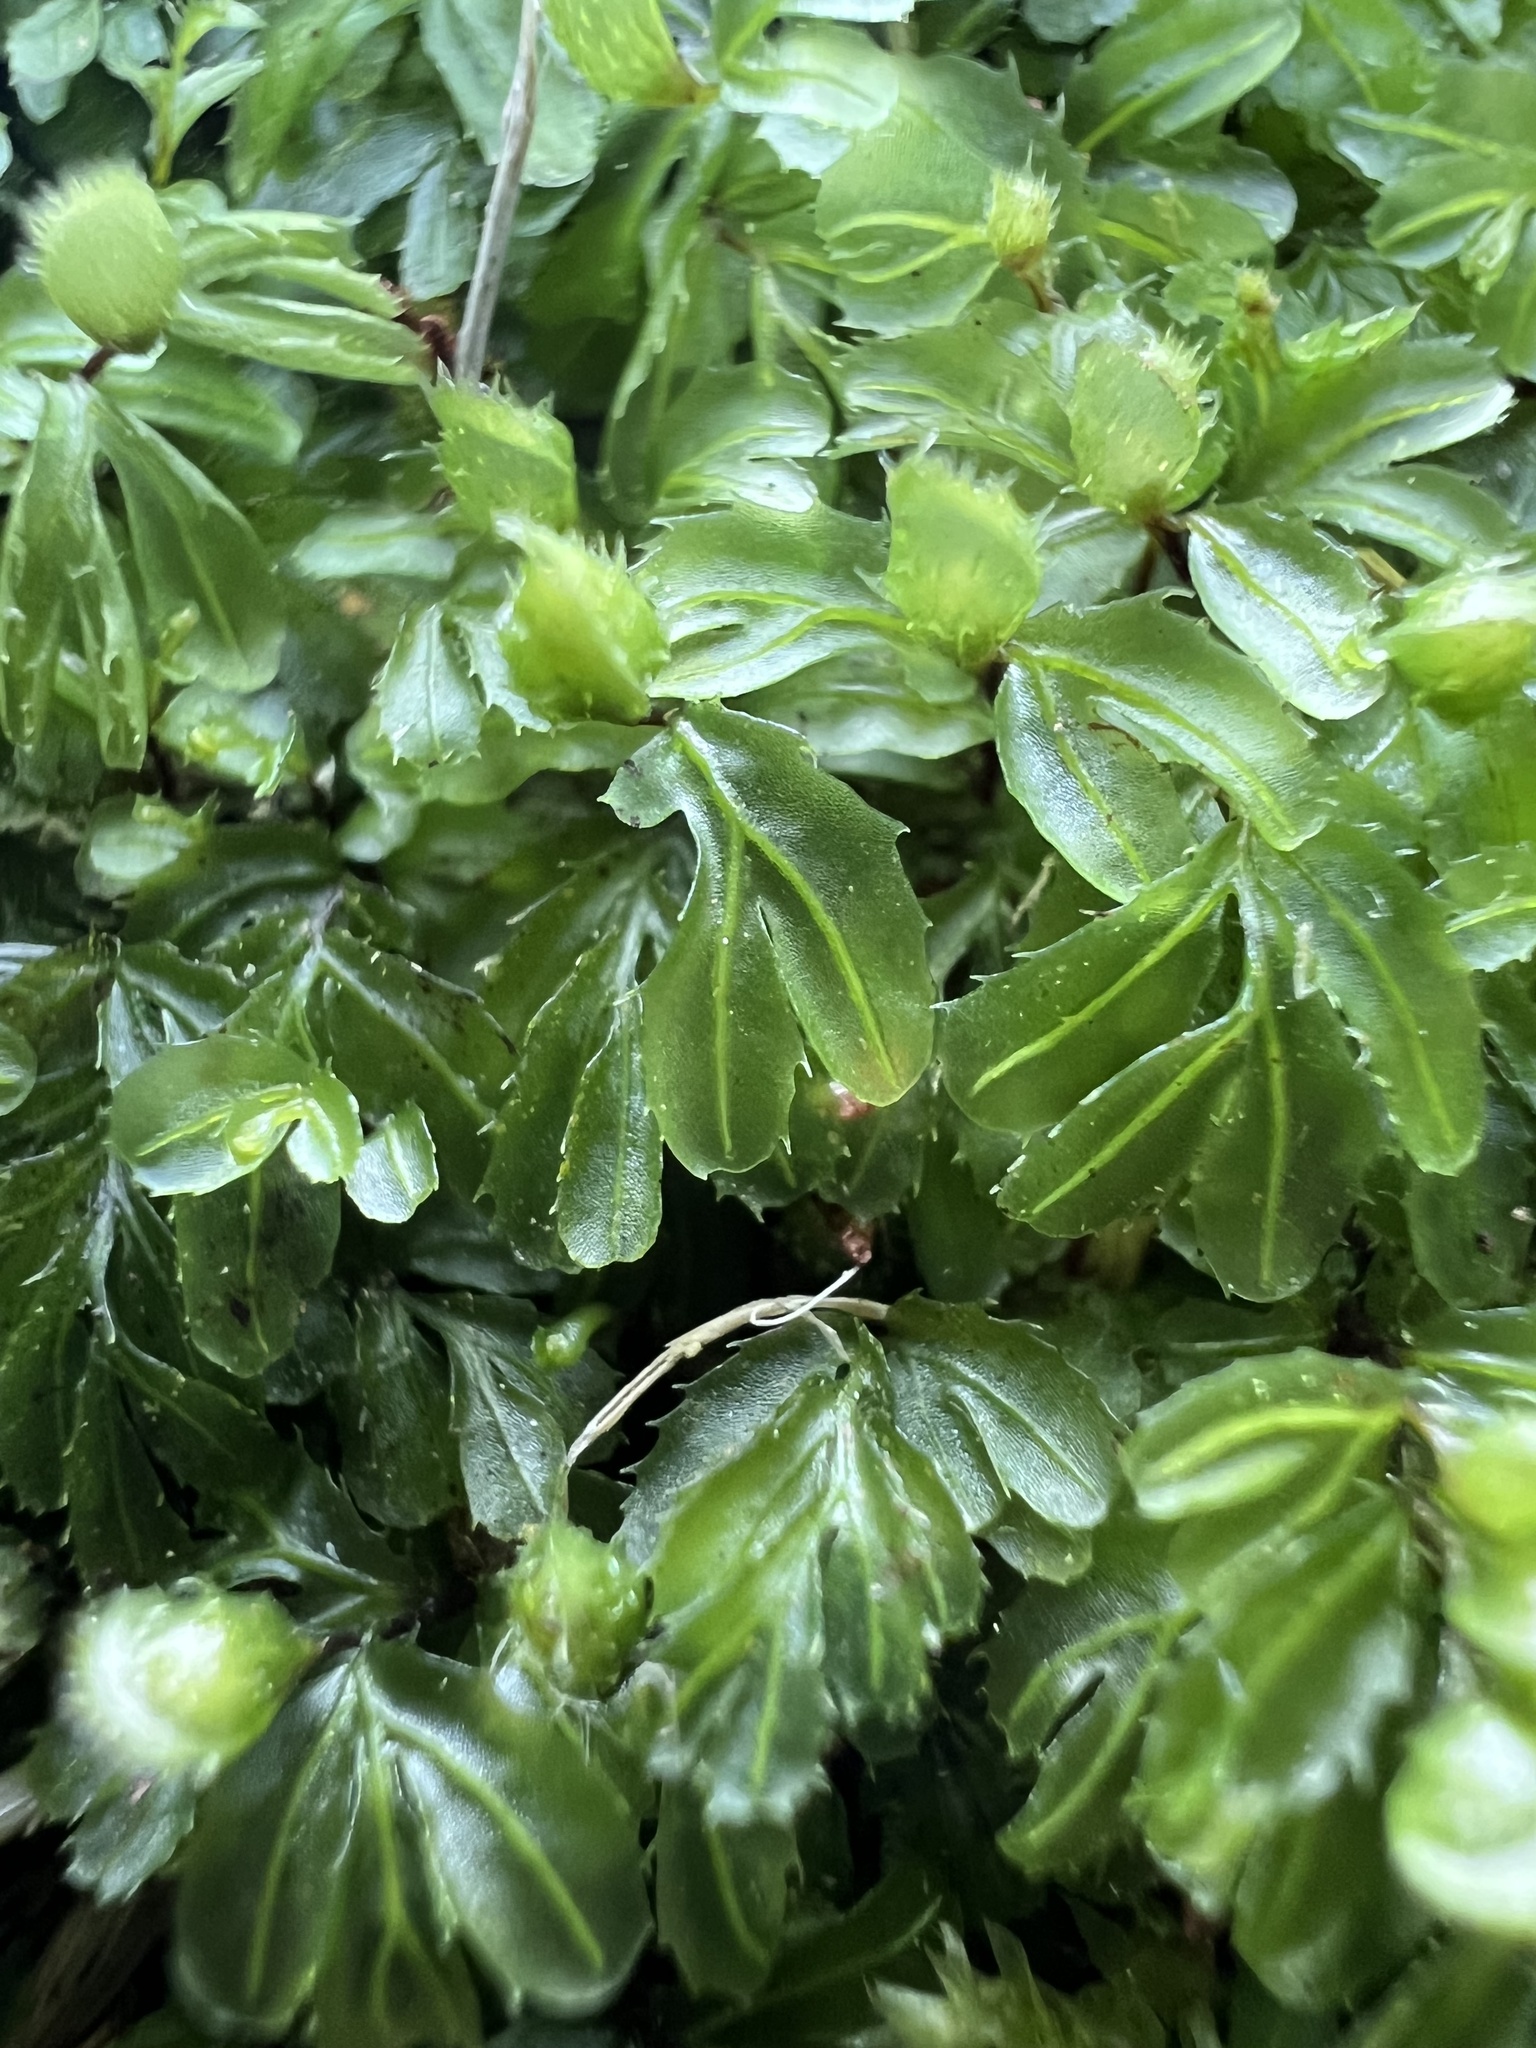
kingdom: Plantae
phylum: Tracheophyta
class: Polypodiopsida
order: Hymenophyllales
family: Hymenophyllaceae
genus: Hymenophyllum
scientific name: Hymenophyllum minimum
